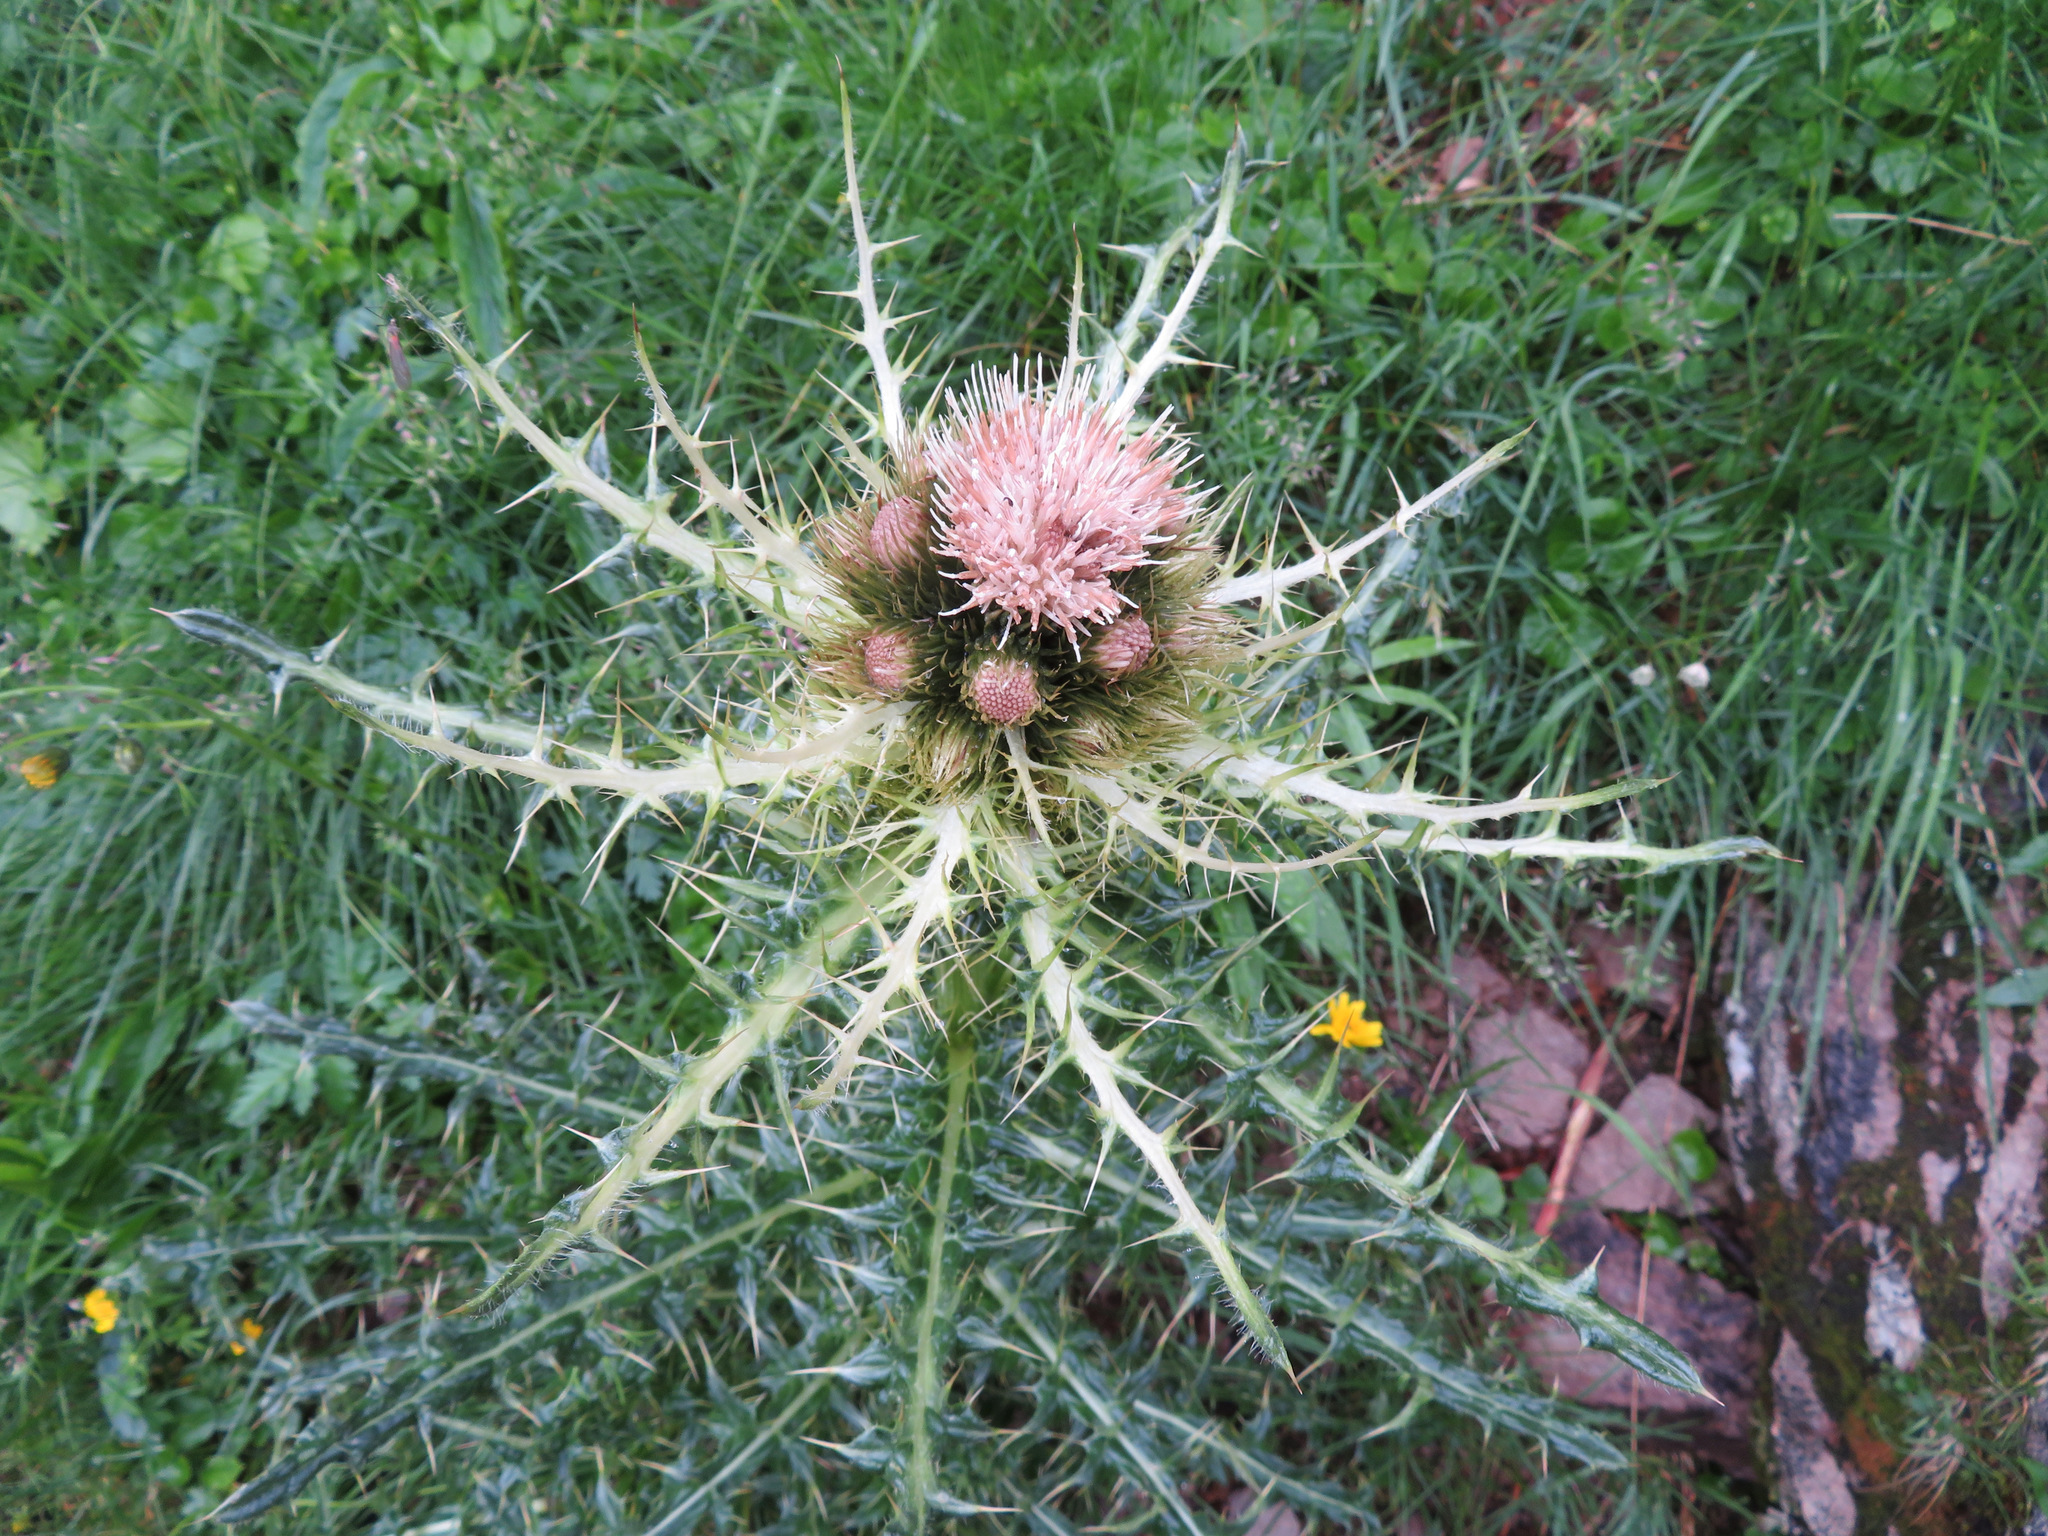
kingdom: Plantae
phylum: Tracheophyta
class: Magnoliopsida
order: Asterales
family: Asteraceae
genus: Cirsium
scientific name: Cirsium spinosissimum
